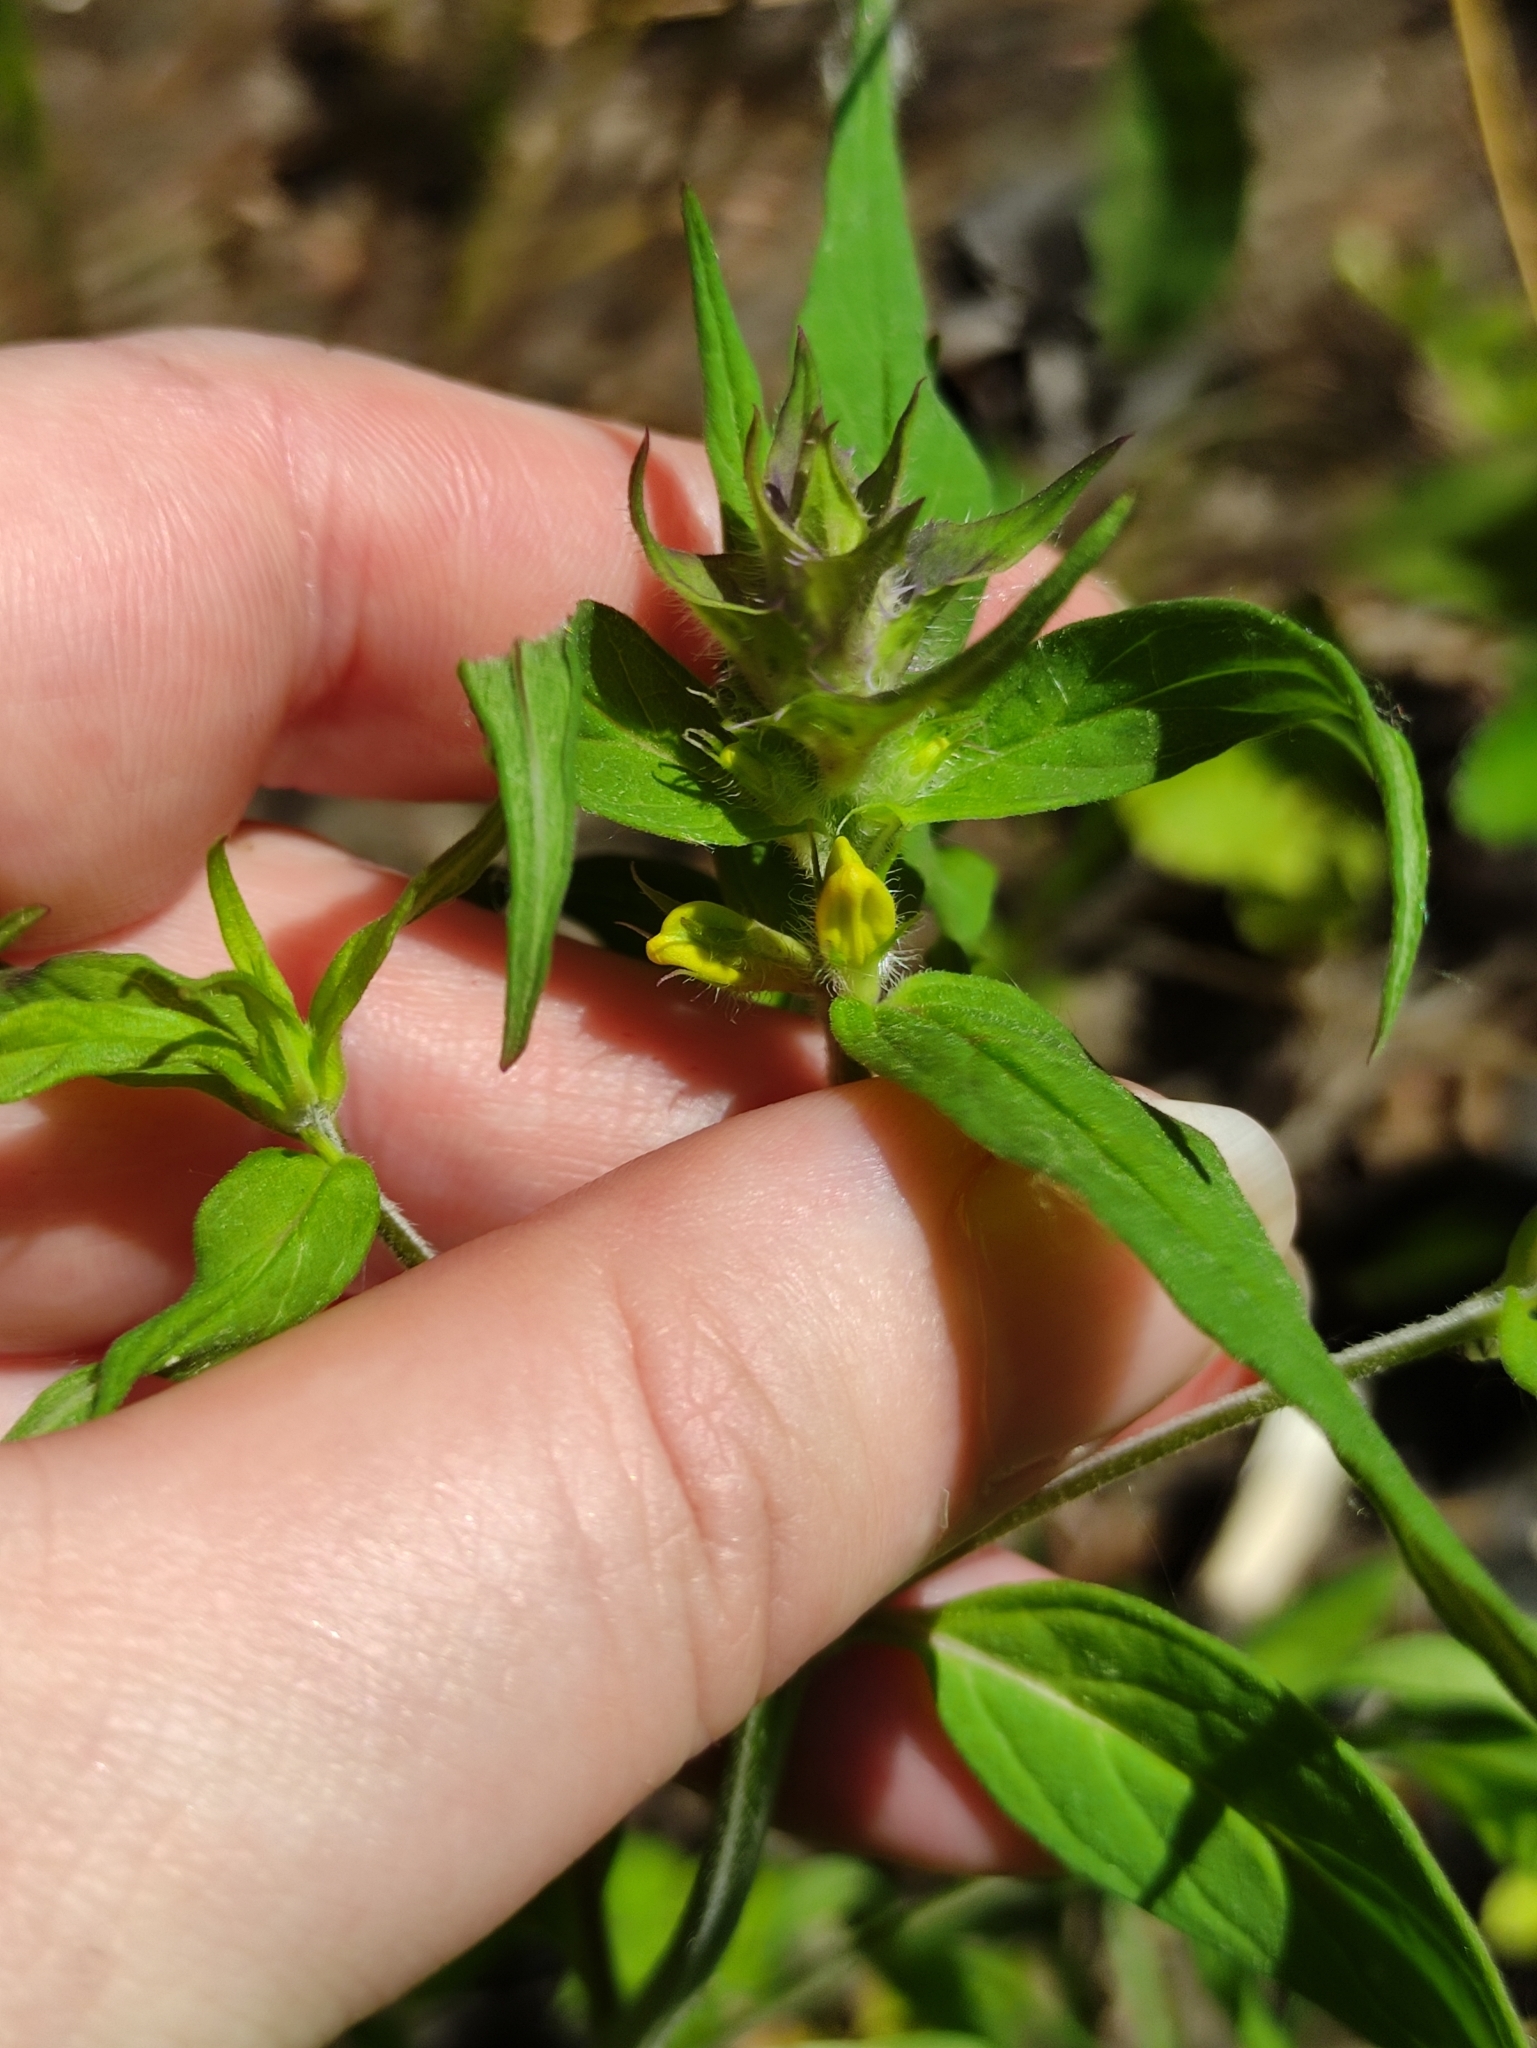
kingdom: Plantae
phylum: Tracheophyta
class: Magnoliopsida
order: Lamiales
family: Orobanchaceae
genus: Melampyrum
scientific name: Melampyrum nemorosum
